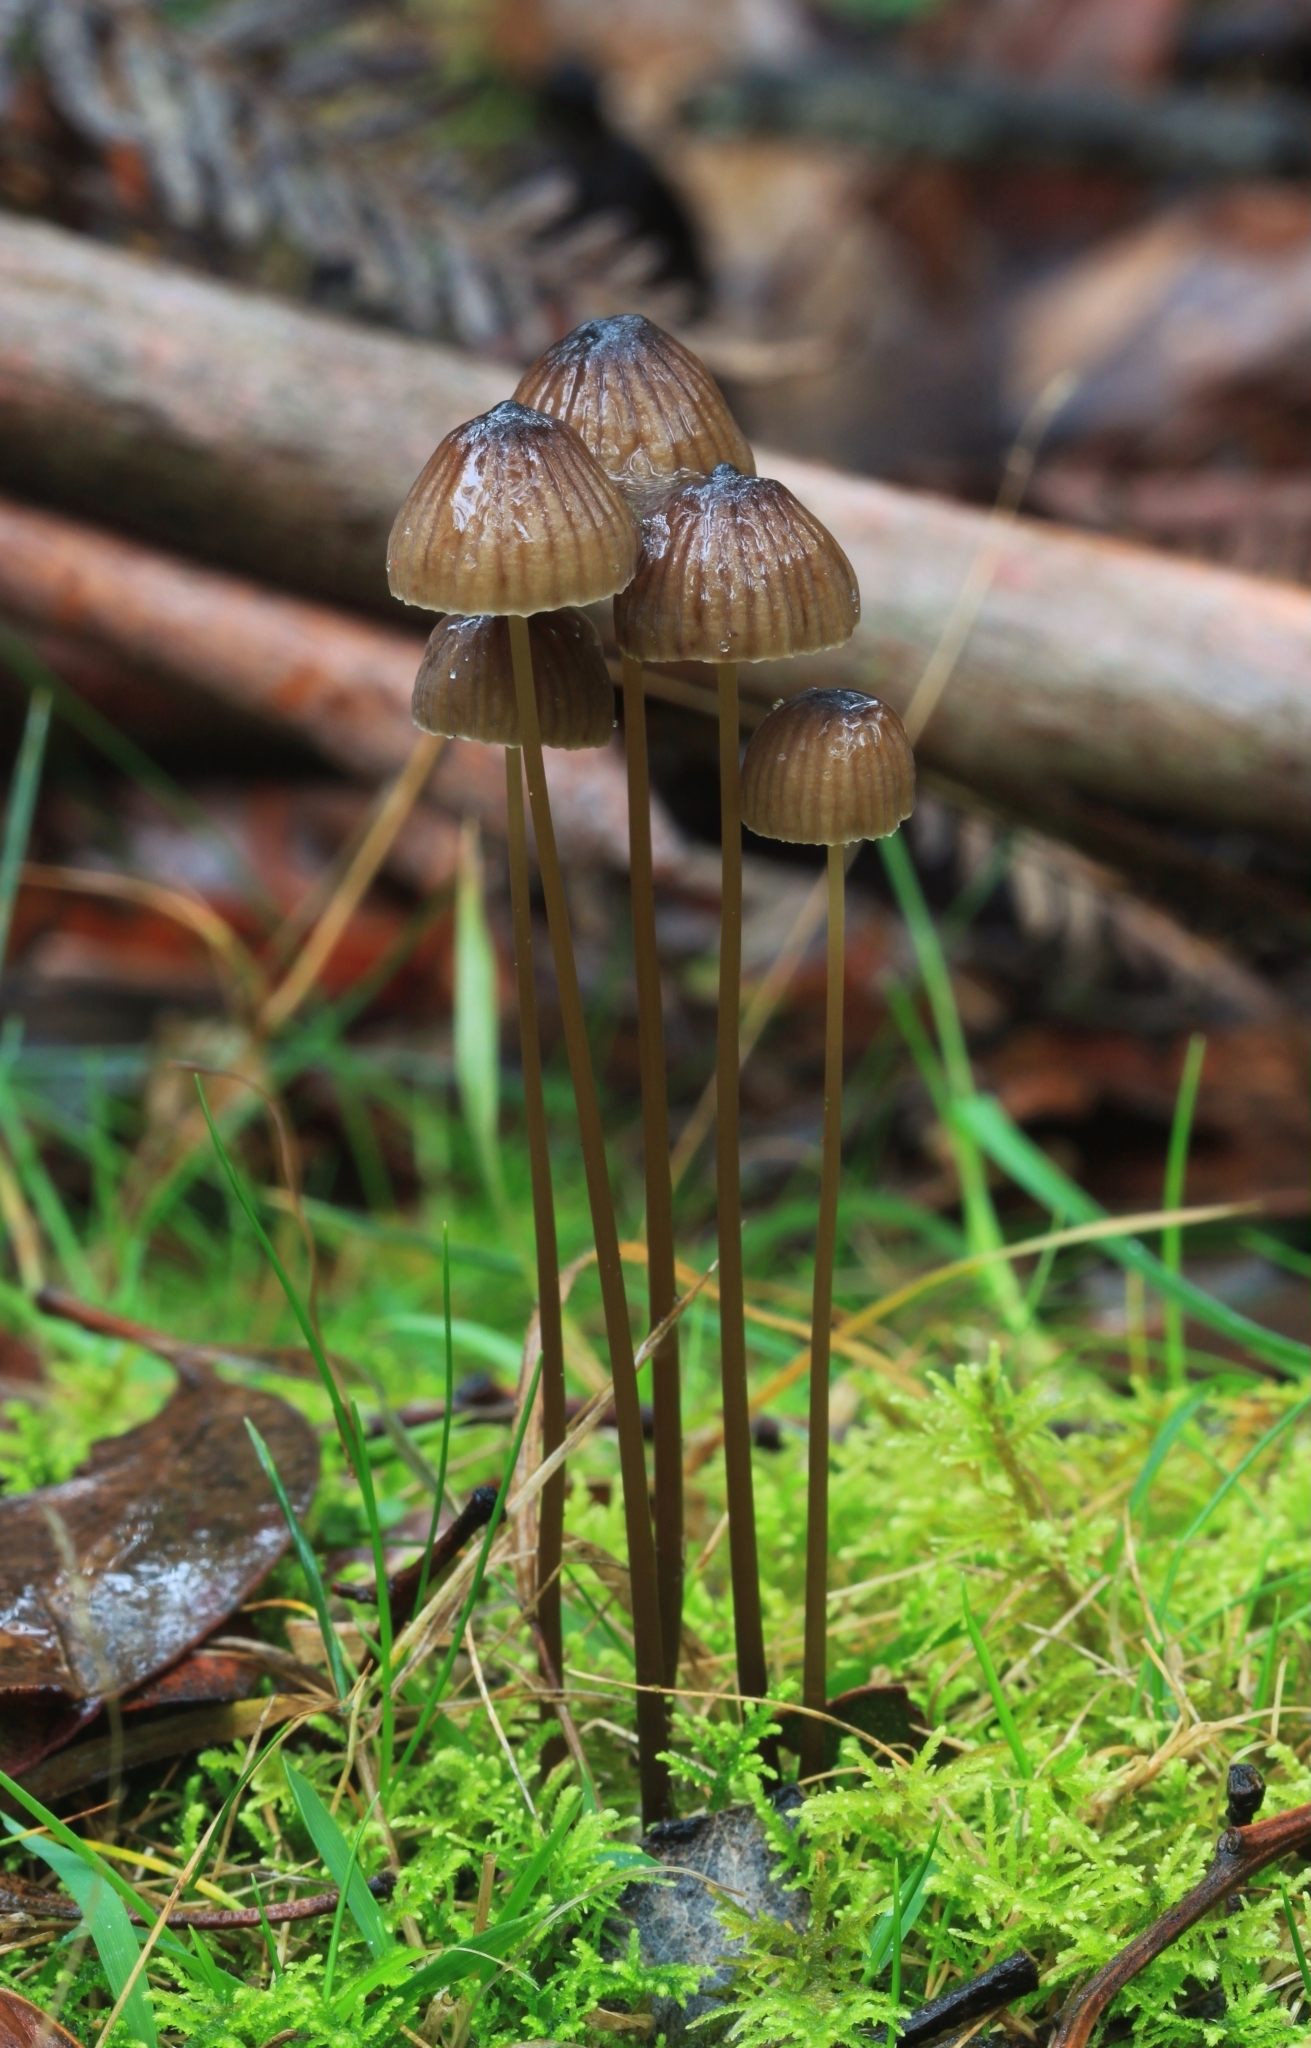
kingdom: Fungi
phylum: Basidiomycota
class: Agaricomycetes
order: Agaricales
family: Mycenaceae
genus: Mycena
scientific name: Mycena cystidiosa
